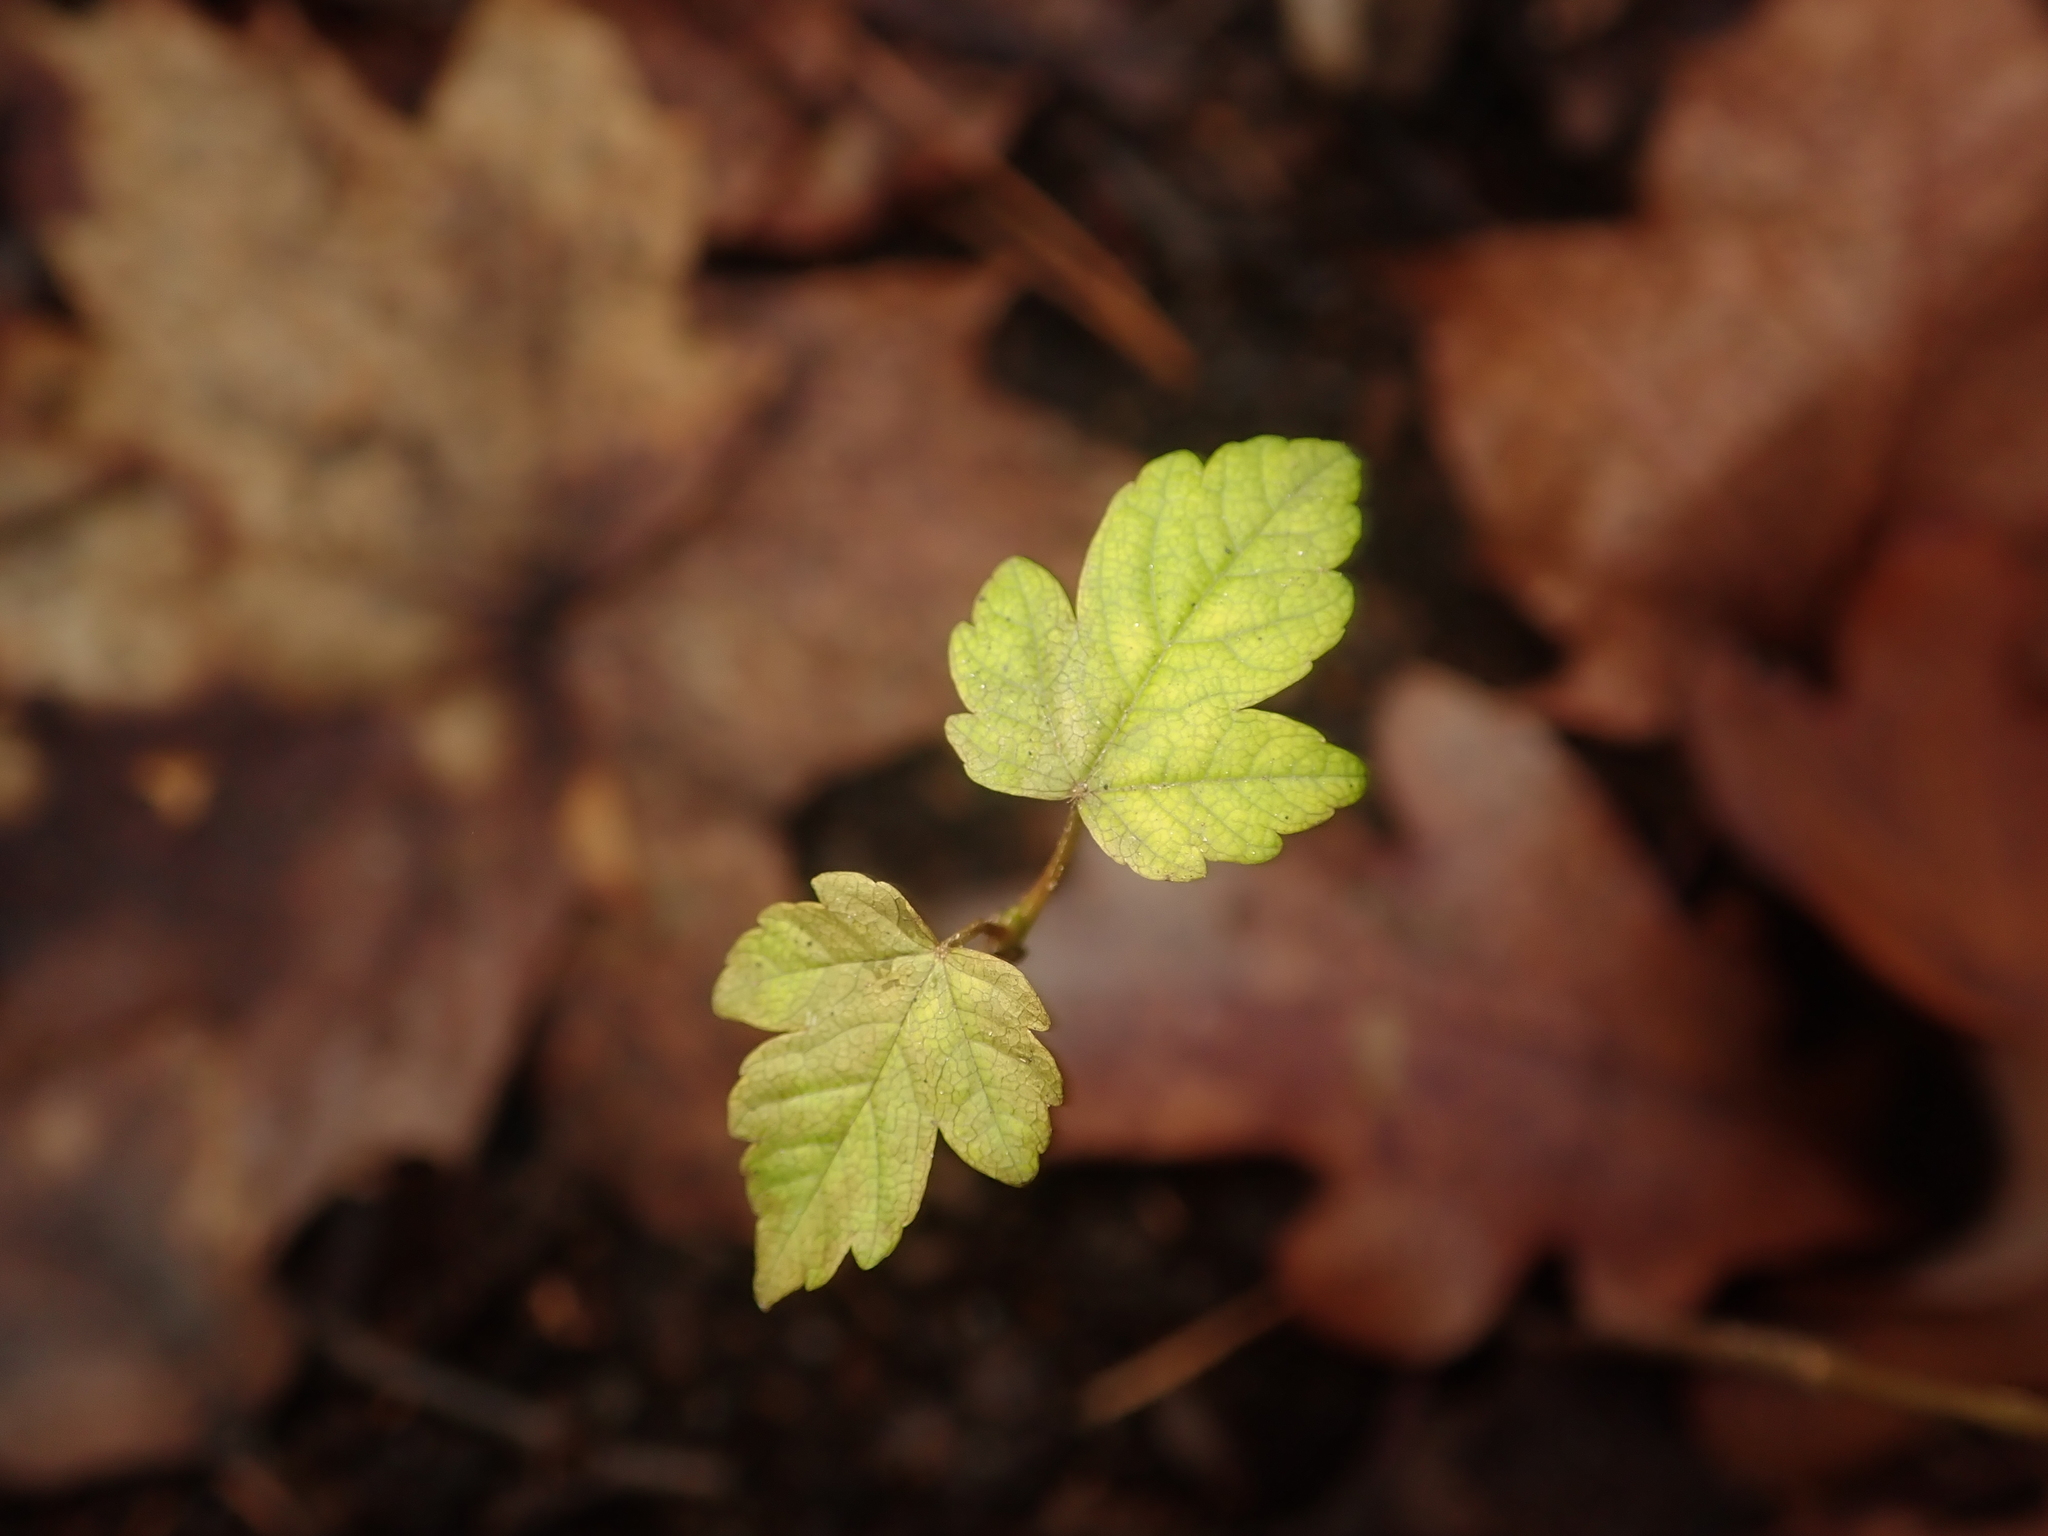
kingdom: Plantae
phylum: Tracheophyta
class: Magnoliopsida
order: Sapindales
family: Sapindaceae
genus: Acer
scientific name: Acer pseudoplatanus
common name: Sycamore
